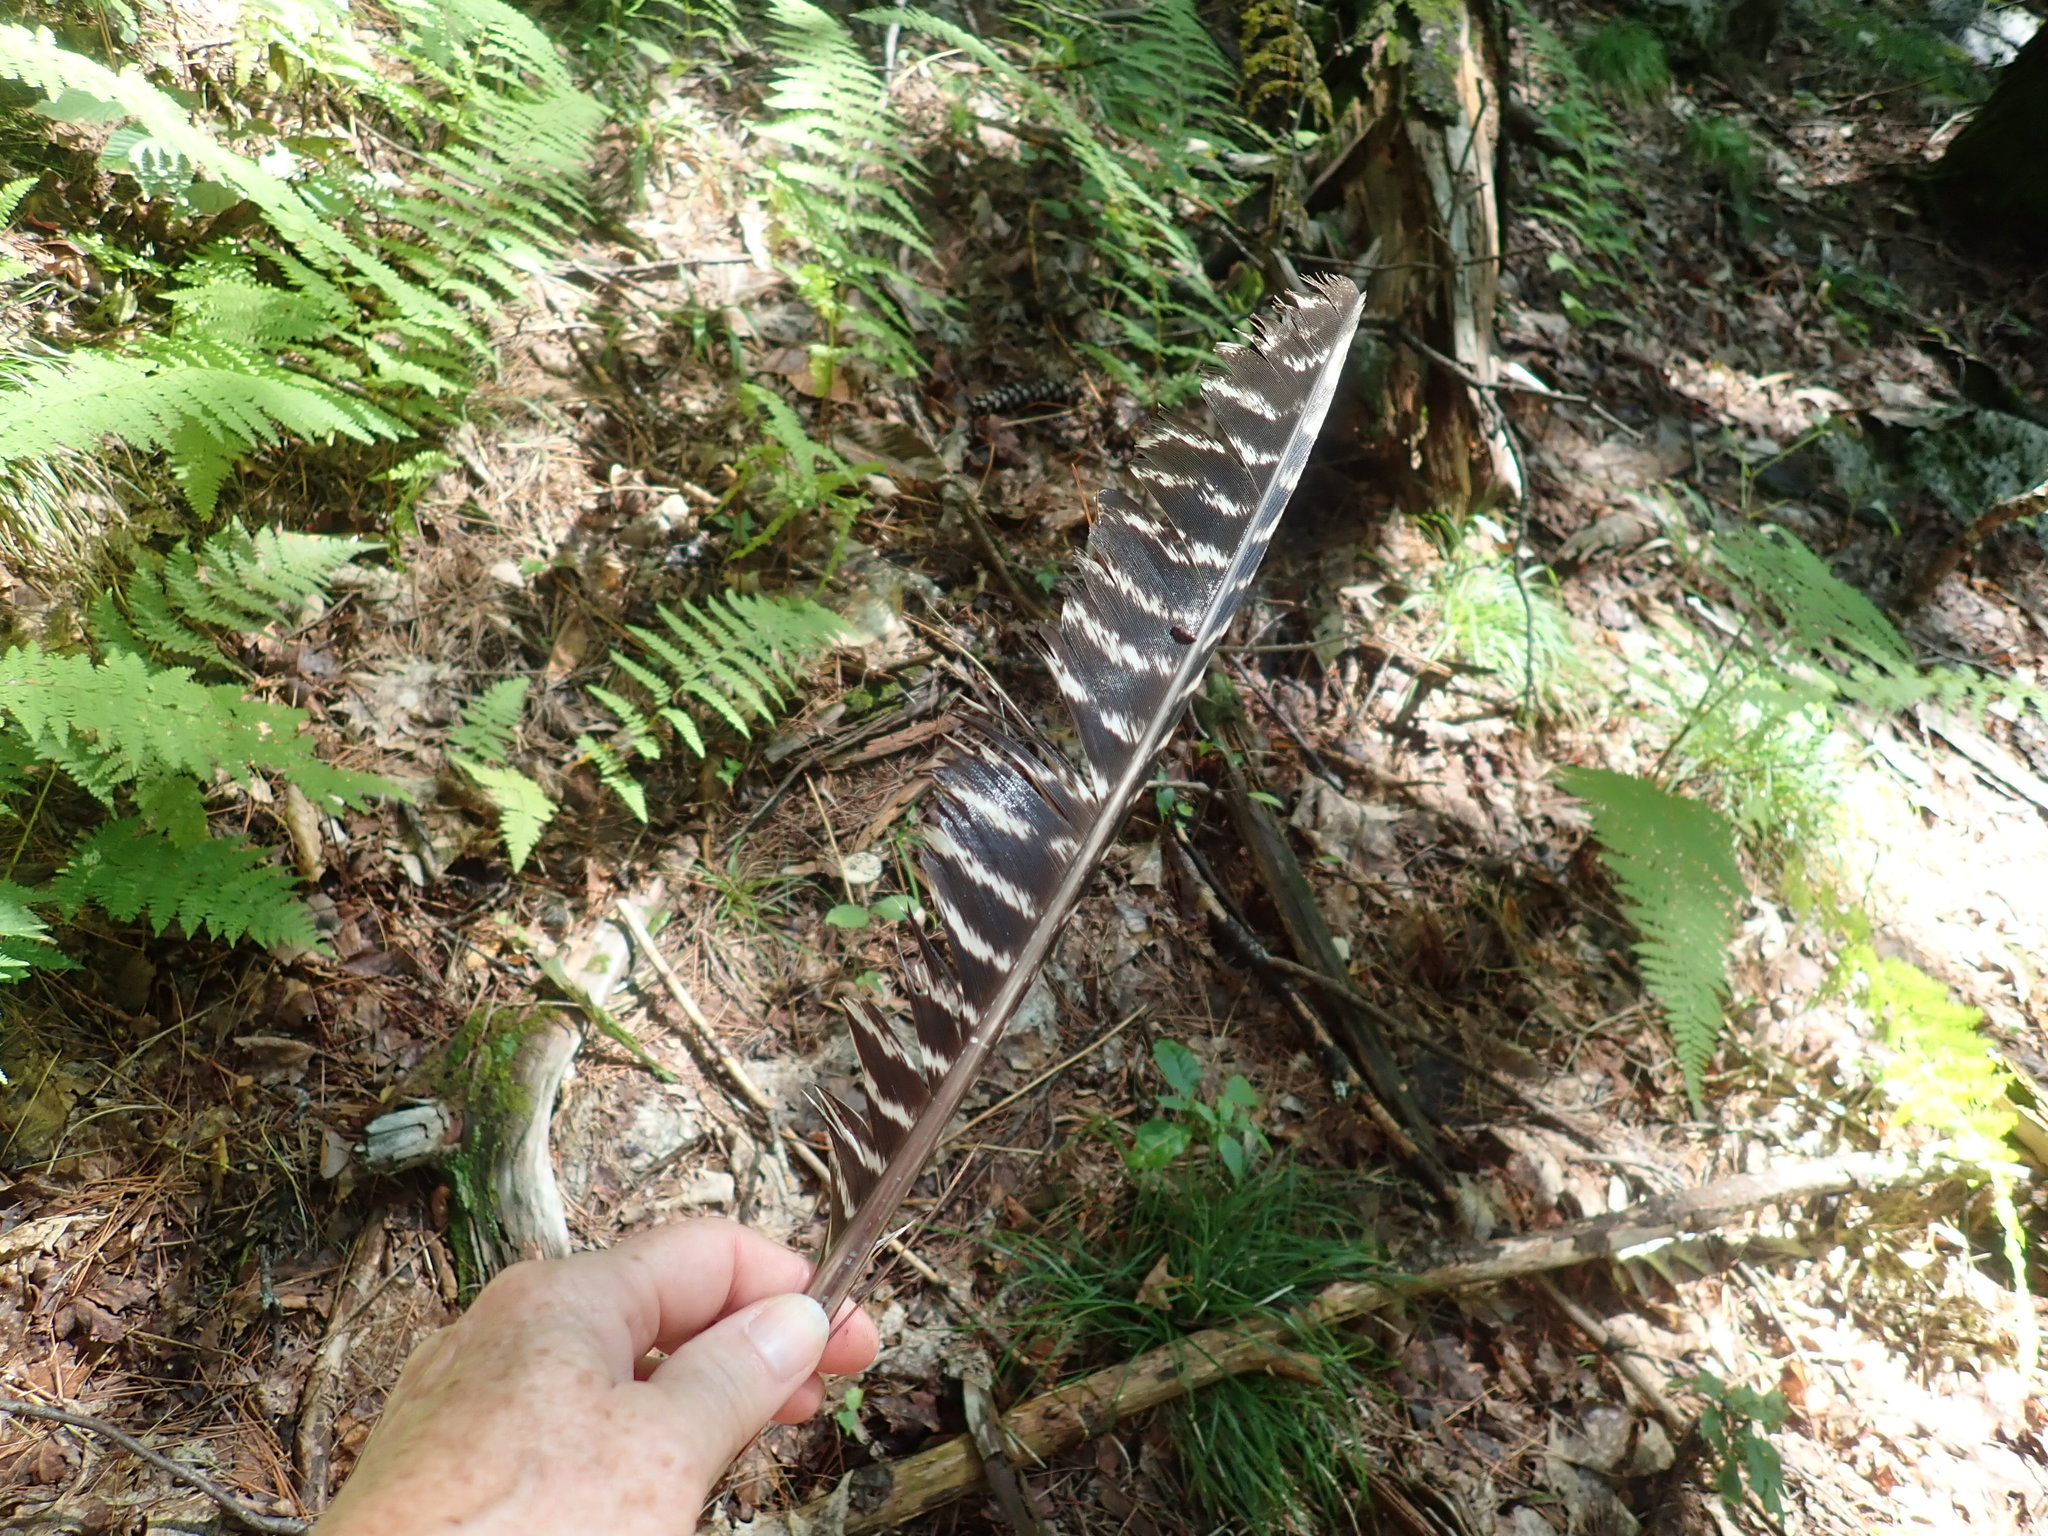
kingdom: Animalia
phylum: Chordata
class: Aves
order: Galliformes
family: Phasianidae
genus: Meleagris
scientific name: Meleagris gallopavo
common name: Wild turkey
